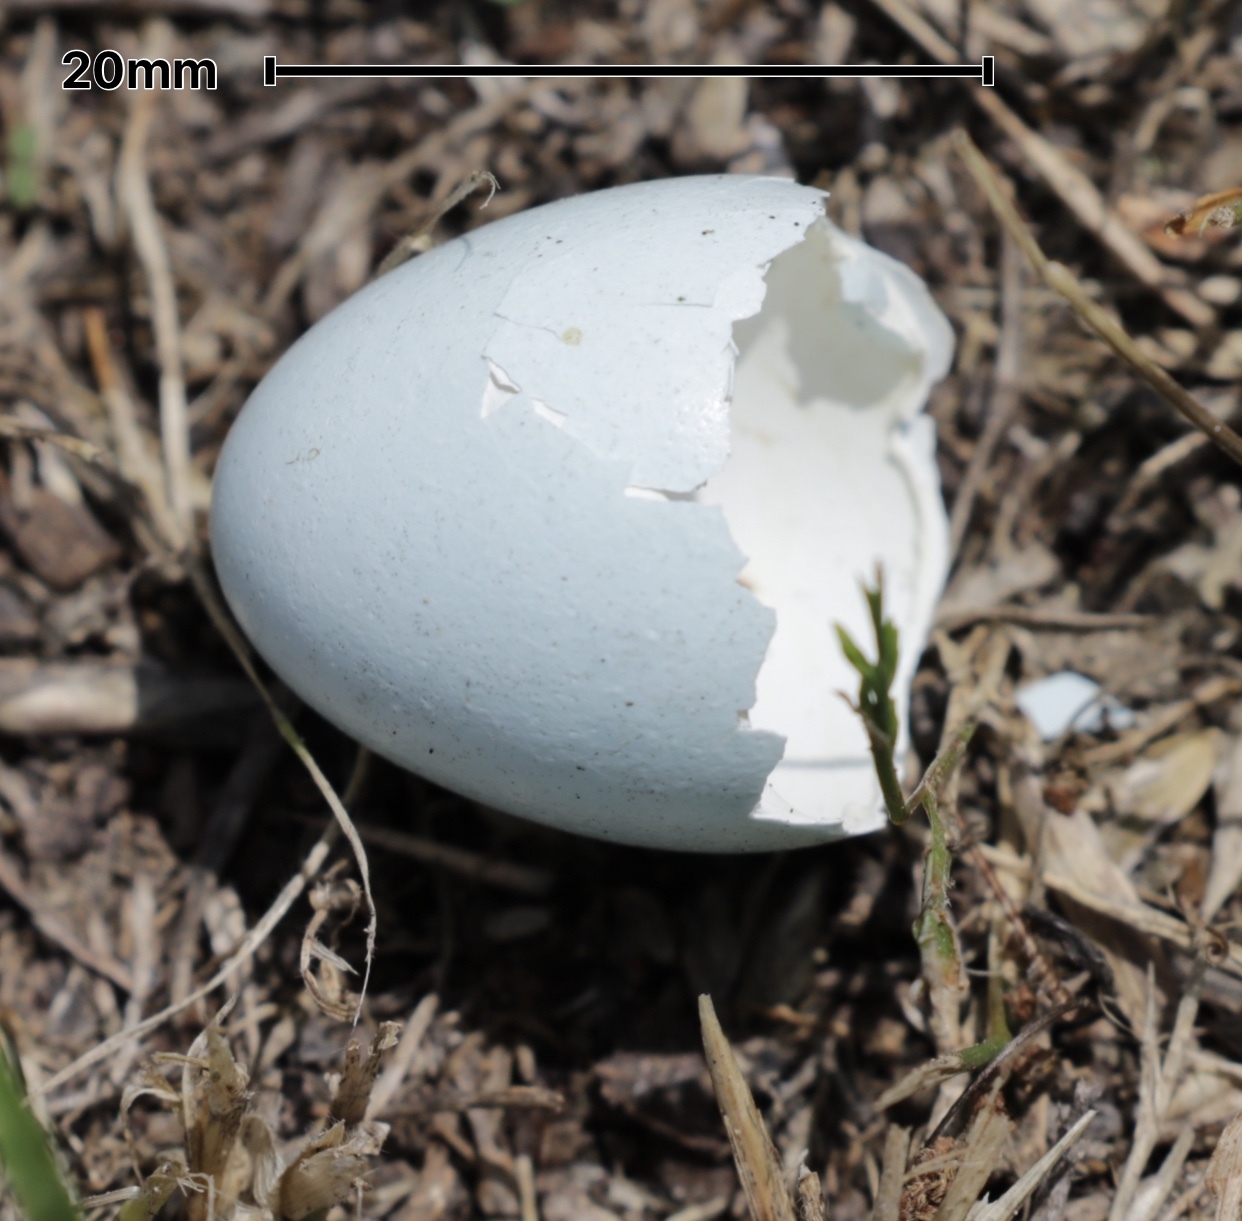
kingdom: Animalia
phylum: Chordata
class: Aves
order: Passeriformes
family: Sturnidae
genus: Sturnus
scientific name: Sturnus vulgaris
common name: Common starling
